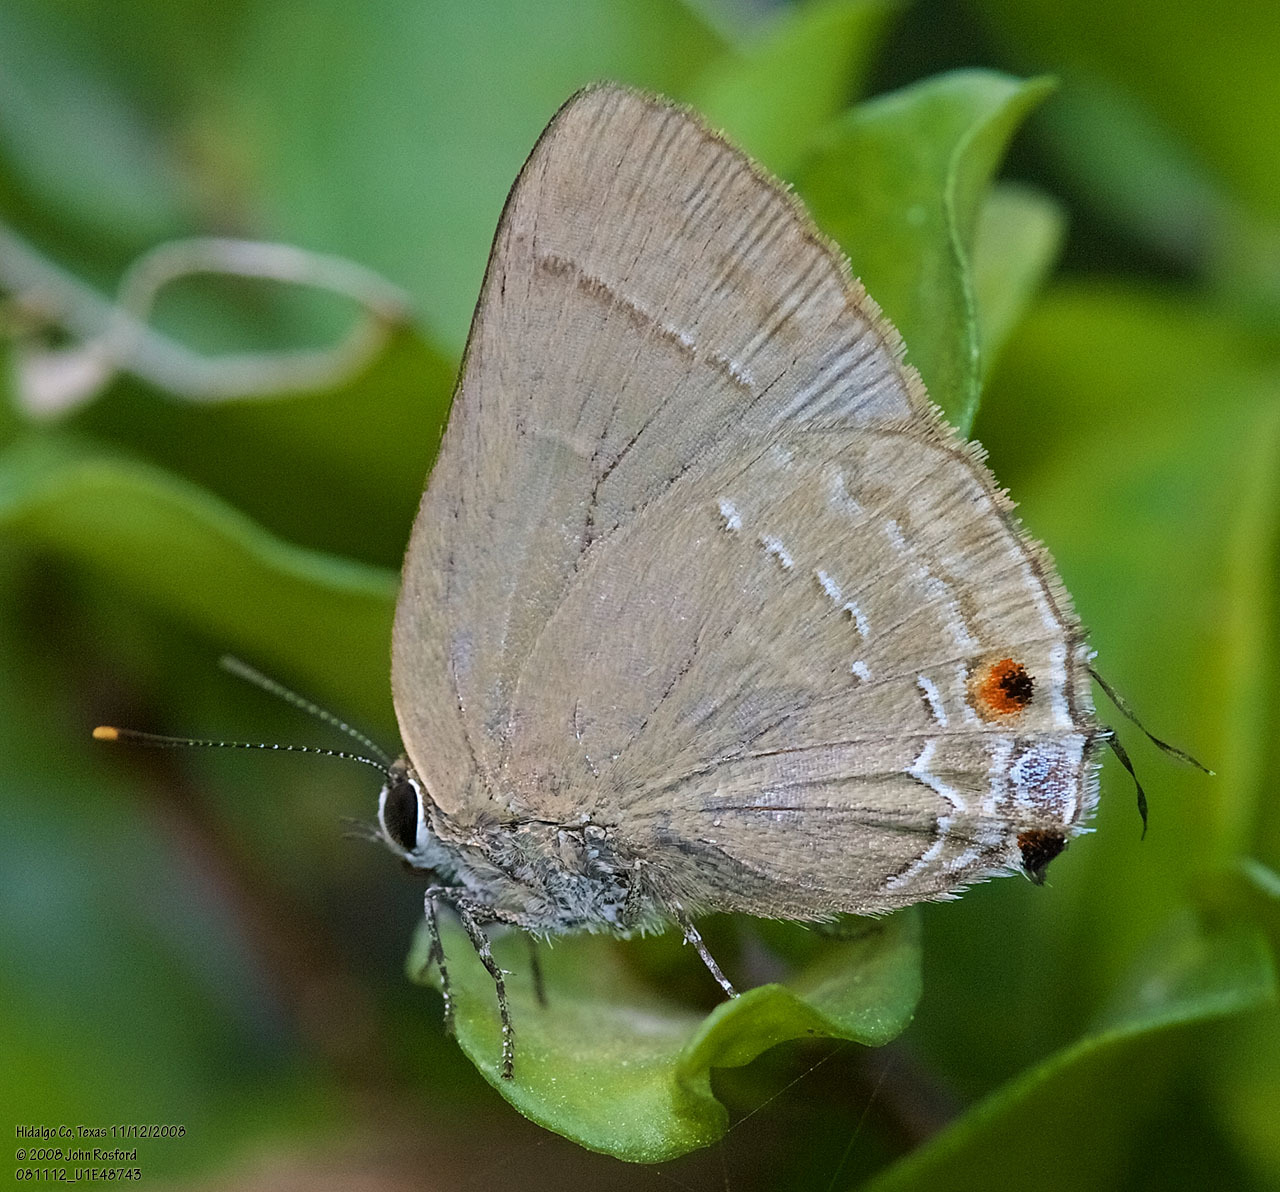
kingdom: Animalia
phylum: Arthropoda
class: Insecta
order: Lepidoptera
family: Lycaenidae
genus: Thecla
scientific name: Thecla strophius
